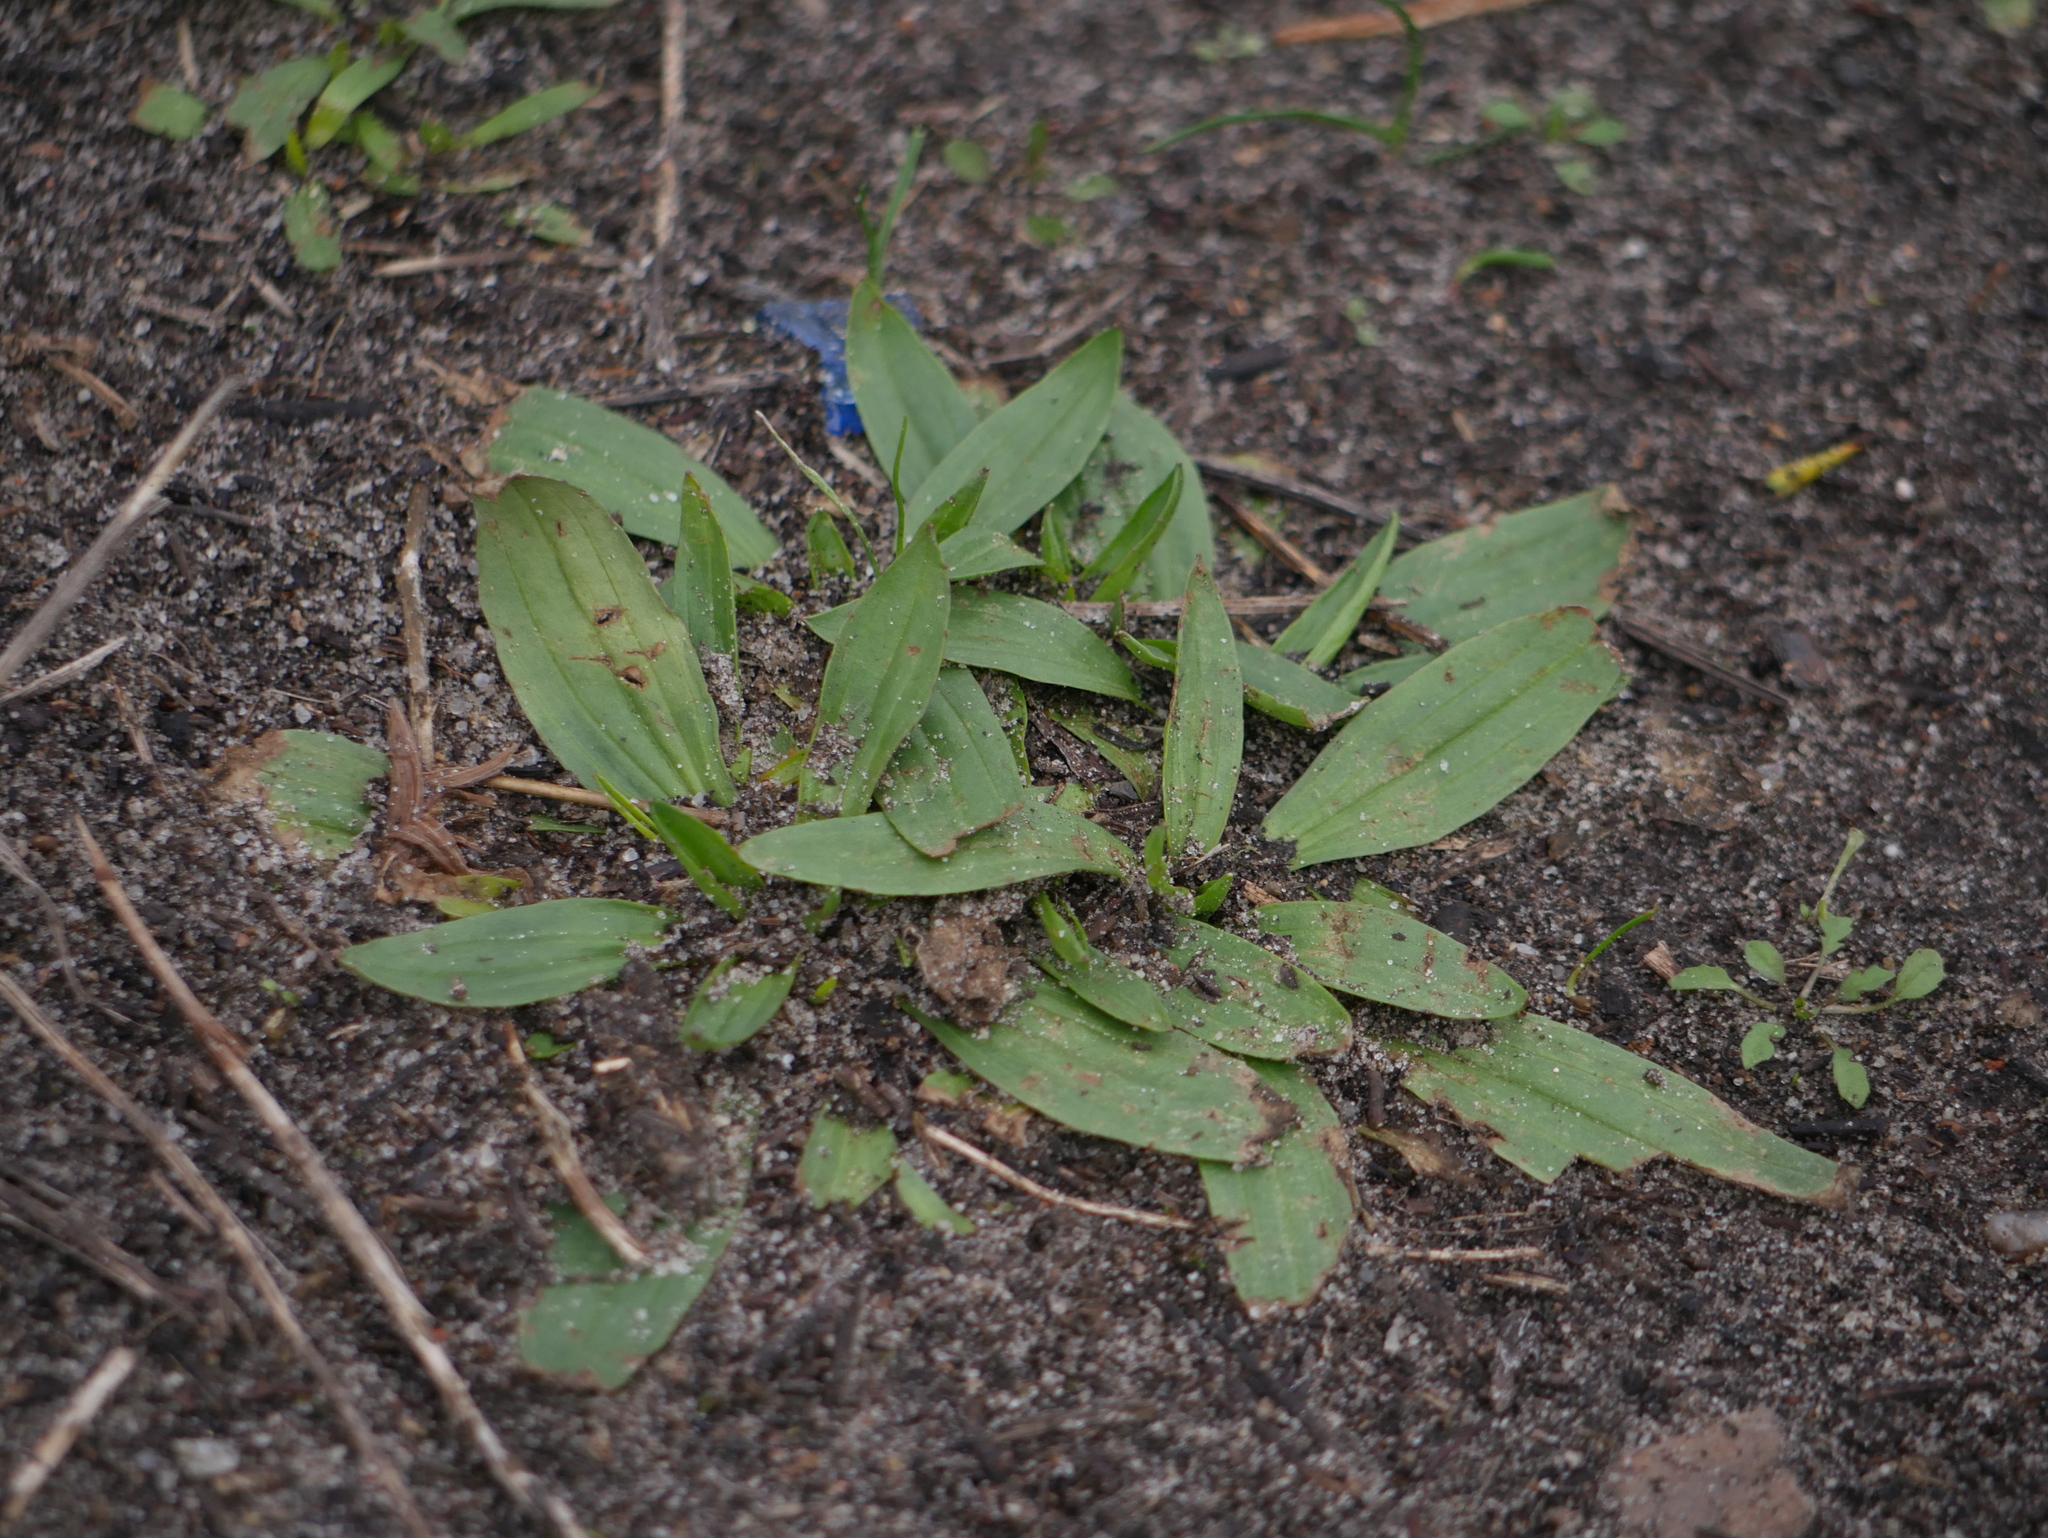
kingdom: Plantae
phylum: Tracheophyta
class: Magnoliopsida
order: Lamiales
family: Plantaginaceae
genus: Plantago
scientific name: Plantago lanceolata
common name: Ribwort plantain
